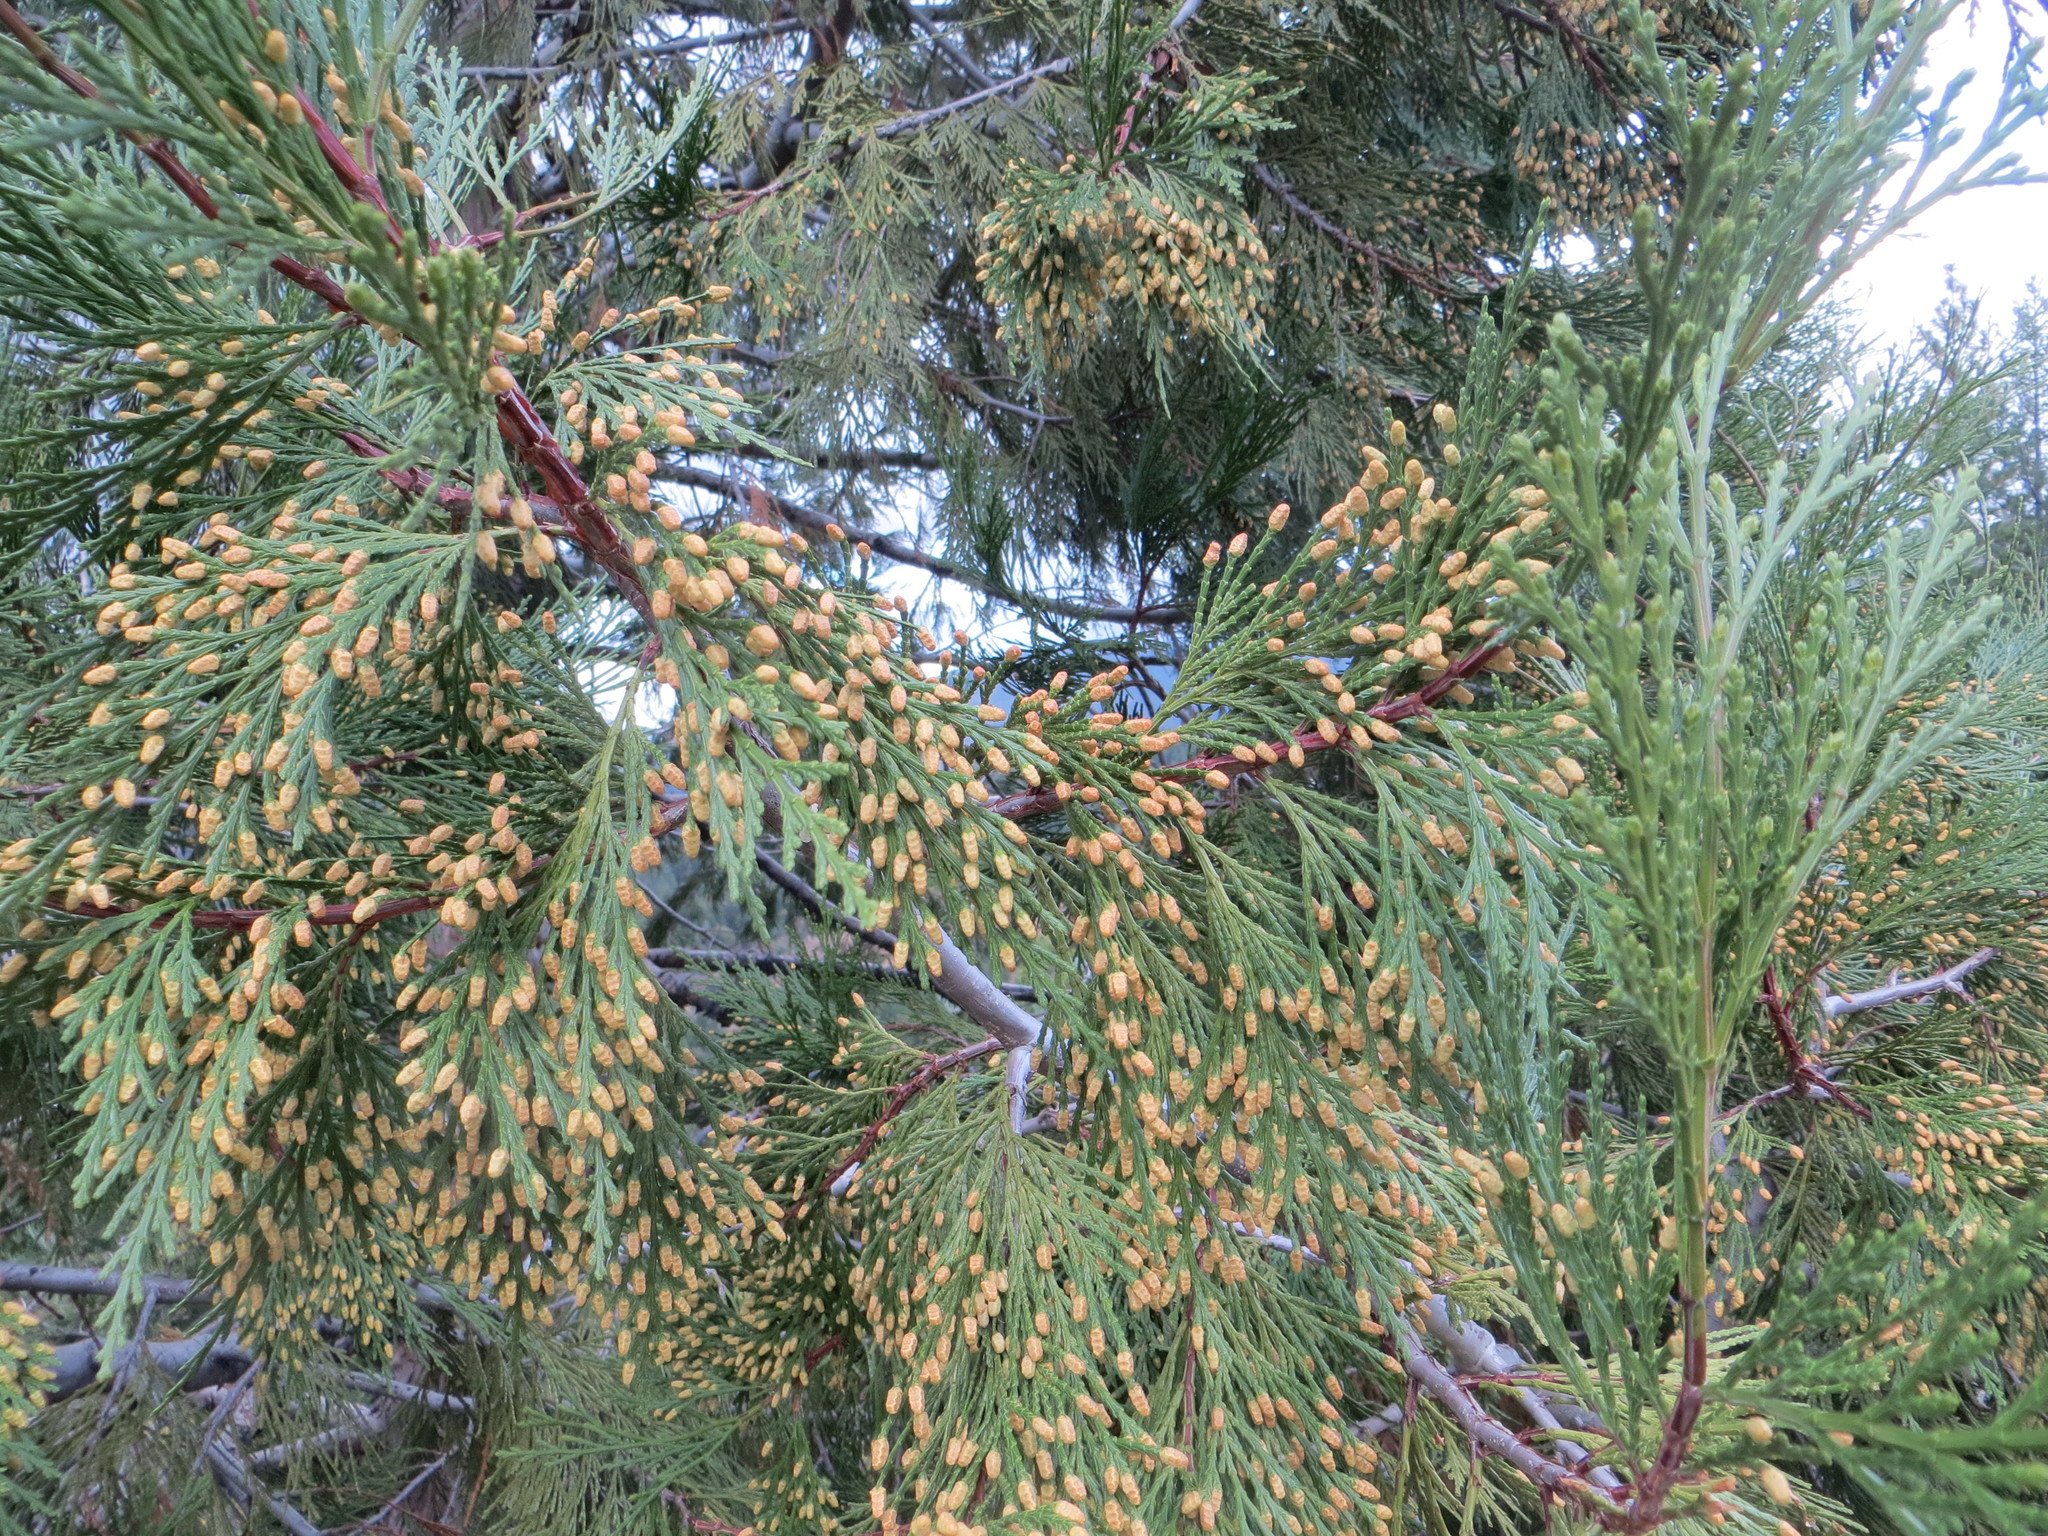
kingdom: Plantae
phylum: Tracheophyta
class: Pinopsida
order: Pinales
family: Cupressaceae
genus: Calocedrus
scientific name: Calocedrus decurrens
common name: Californian incense-cedar
